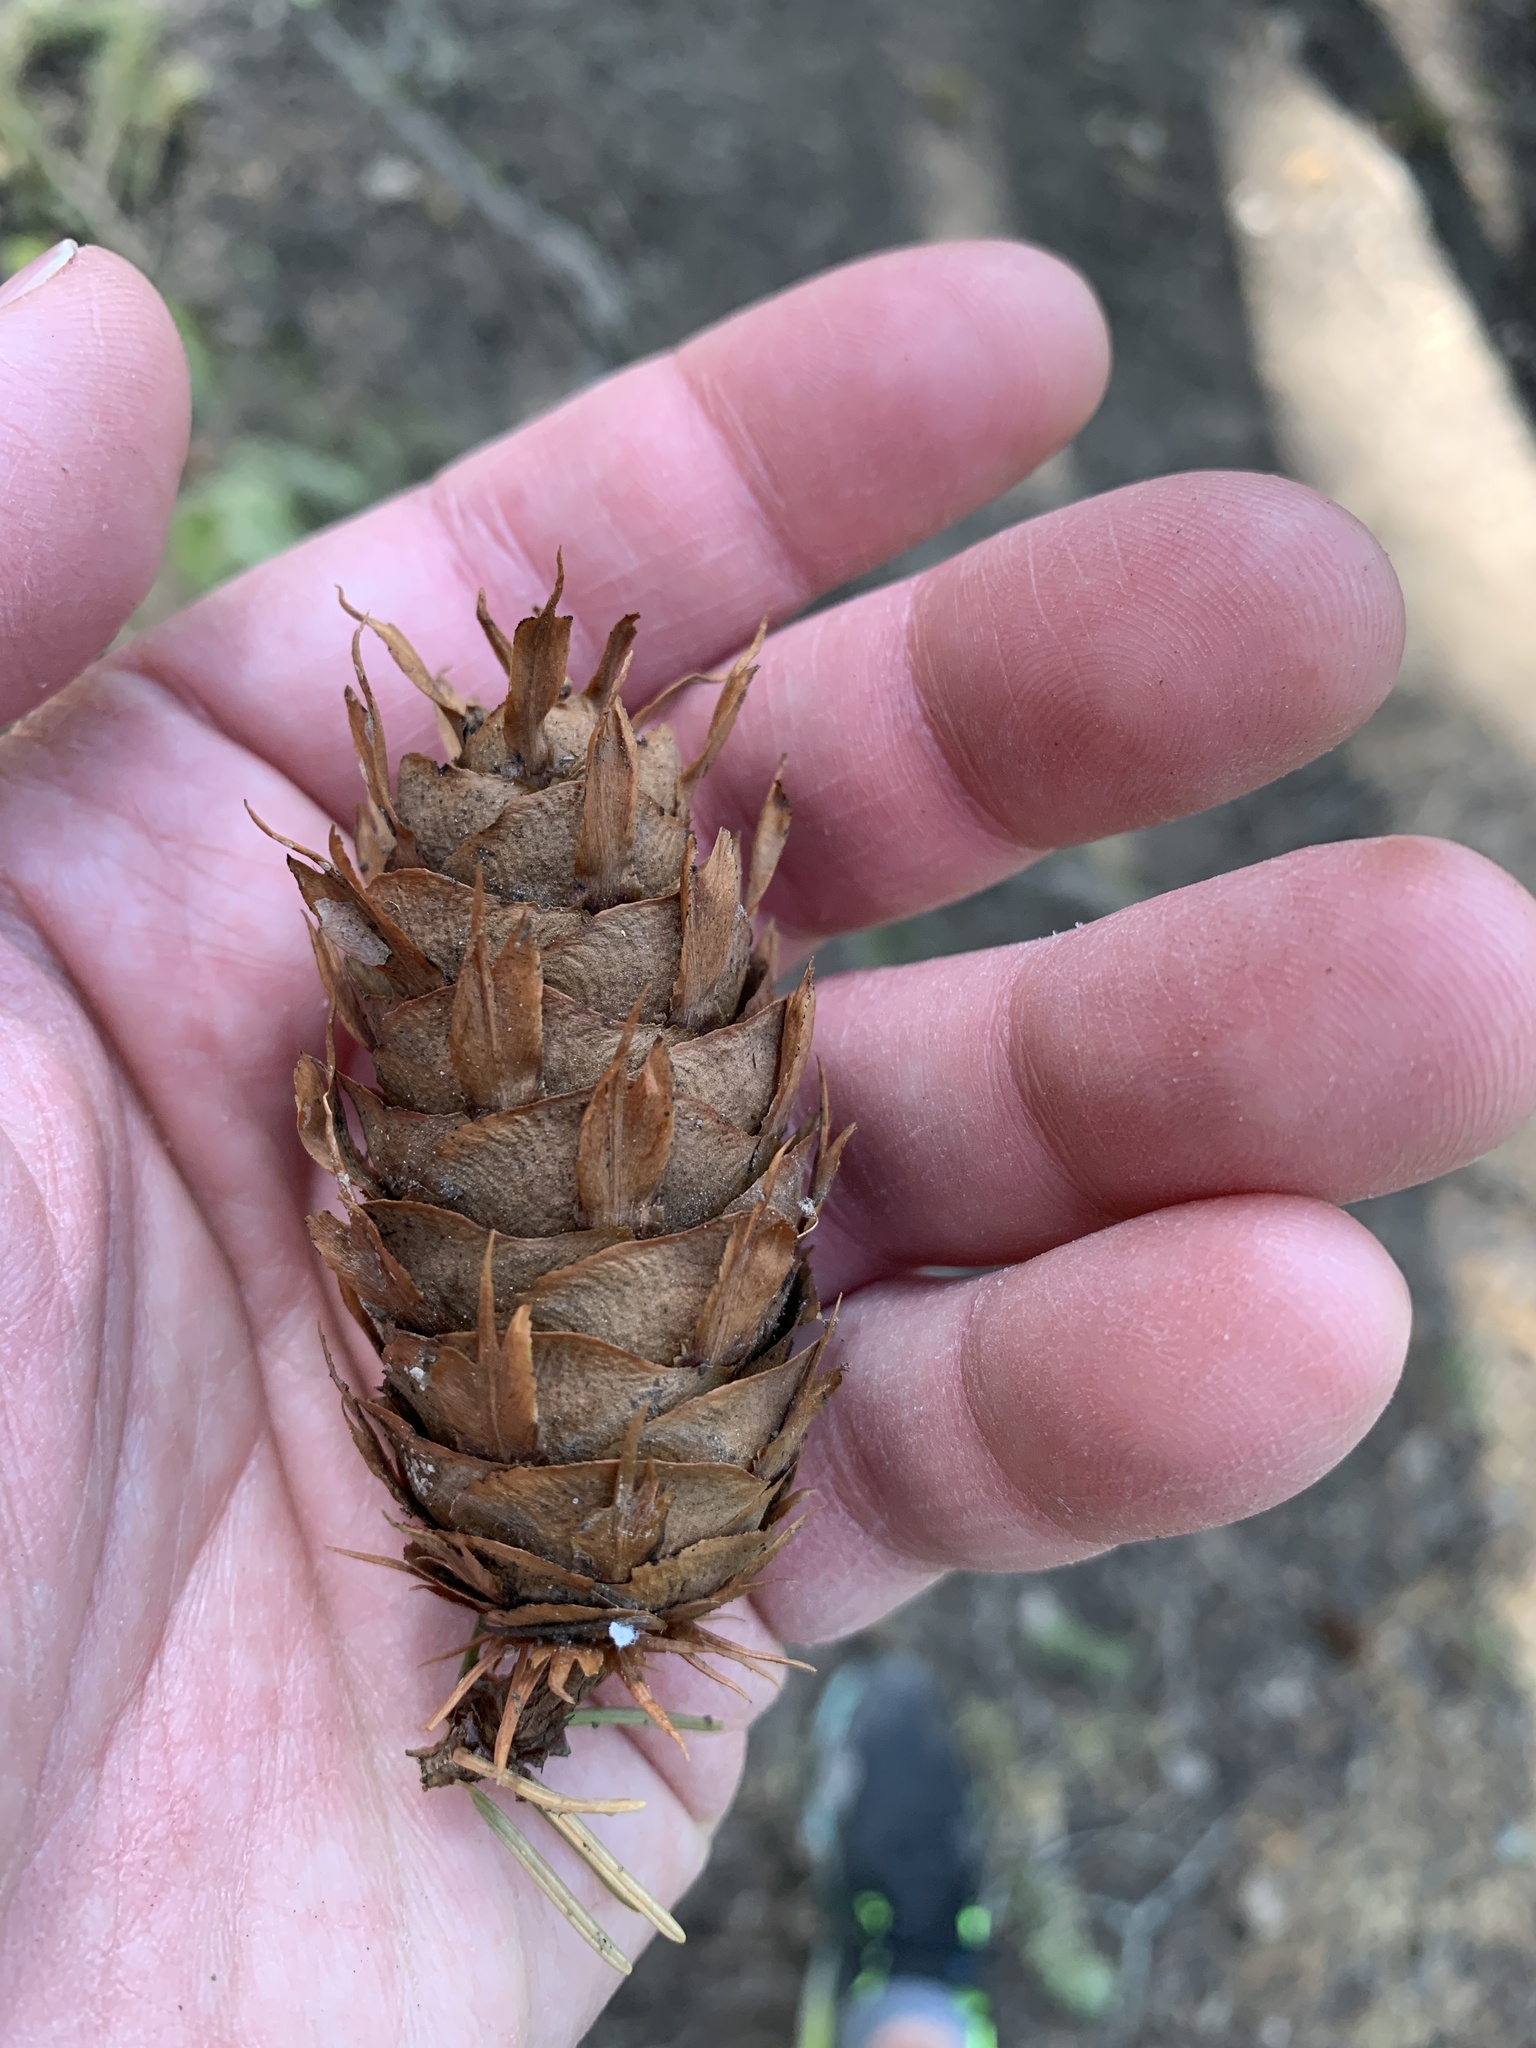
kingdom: Plantae
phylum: Tracheophyta
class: Pinopsida
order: Pinales
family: Pinaceae
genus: Pseudotsuga
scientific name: Pseudotsuga menziesii
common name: Douglas fir
